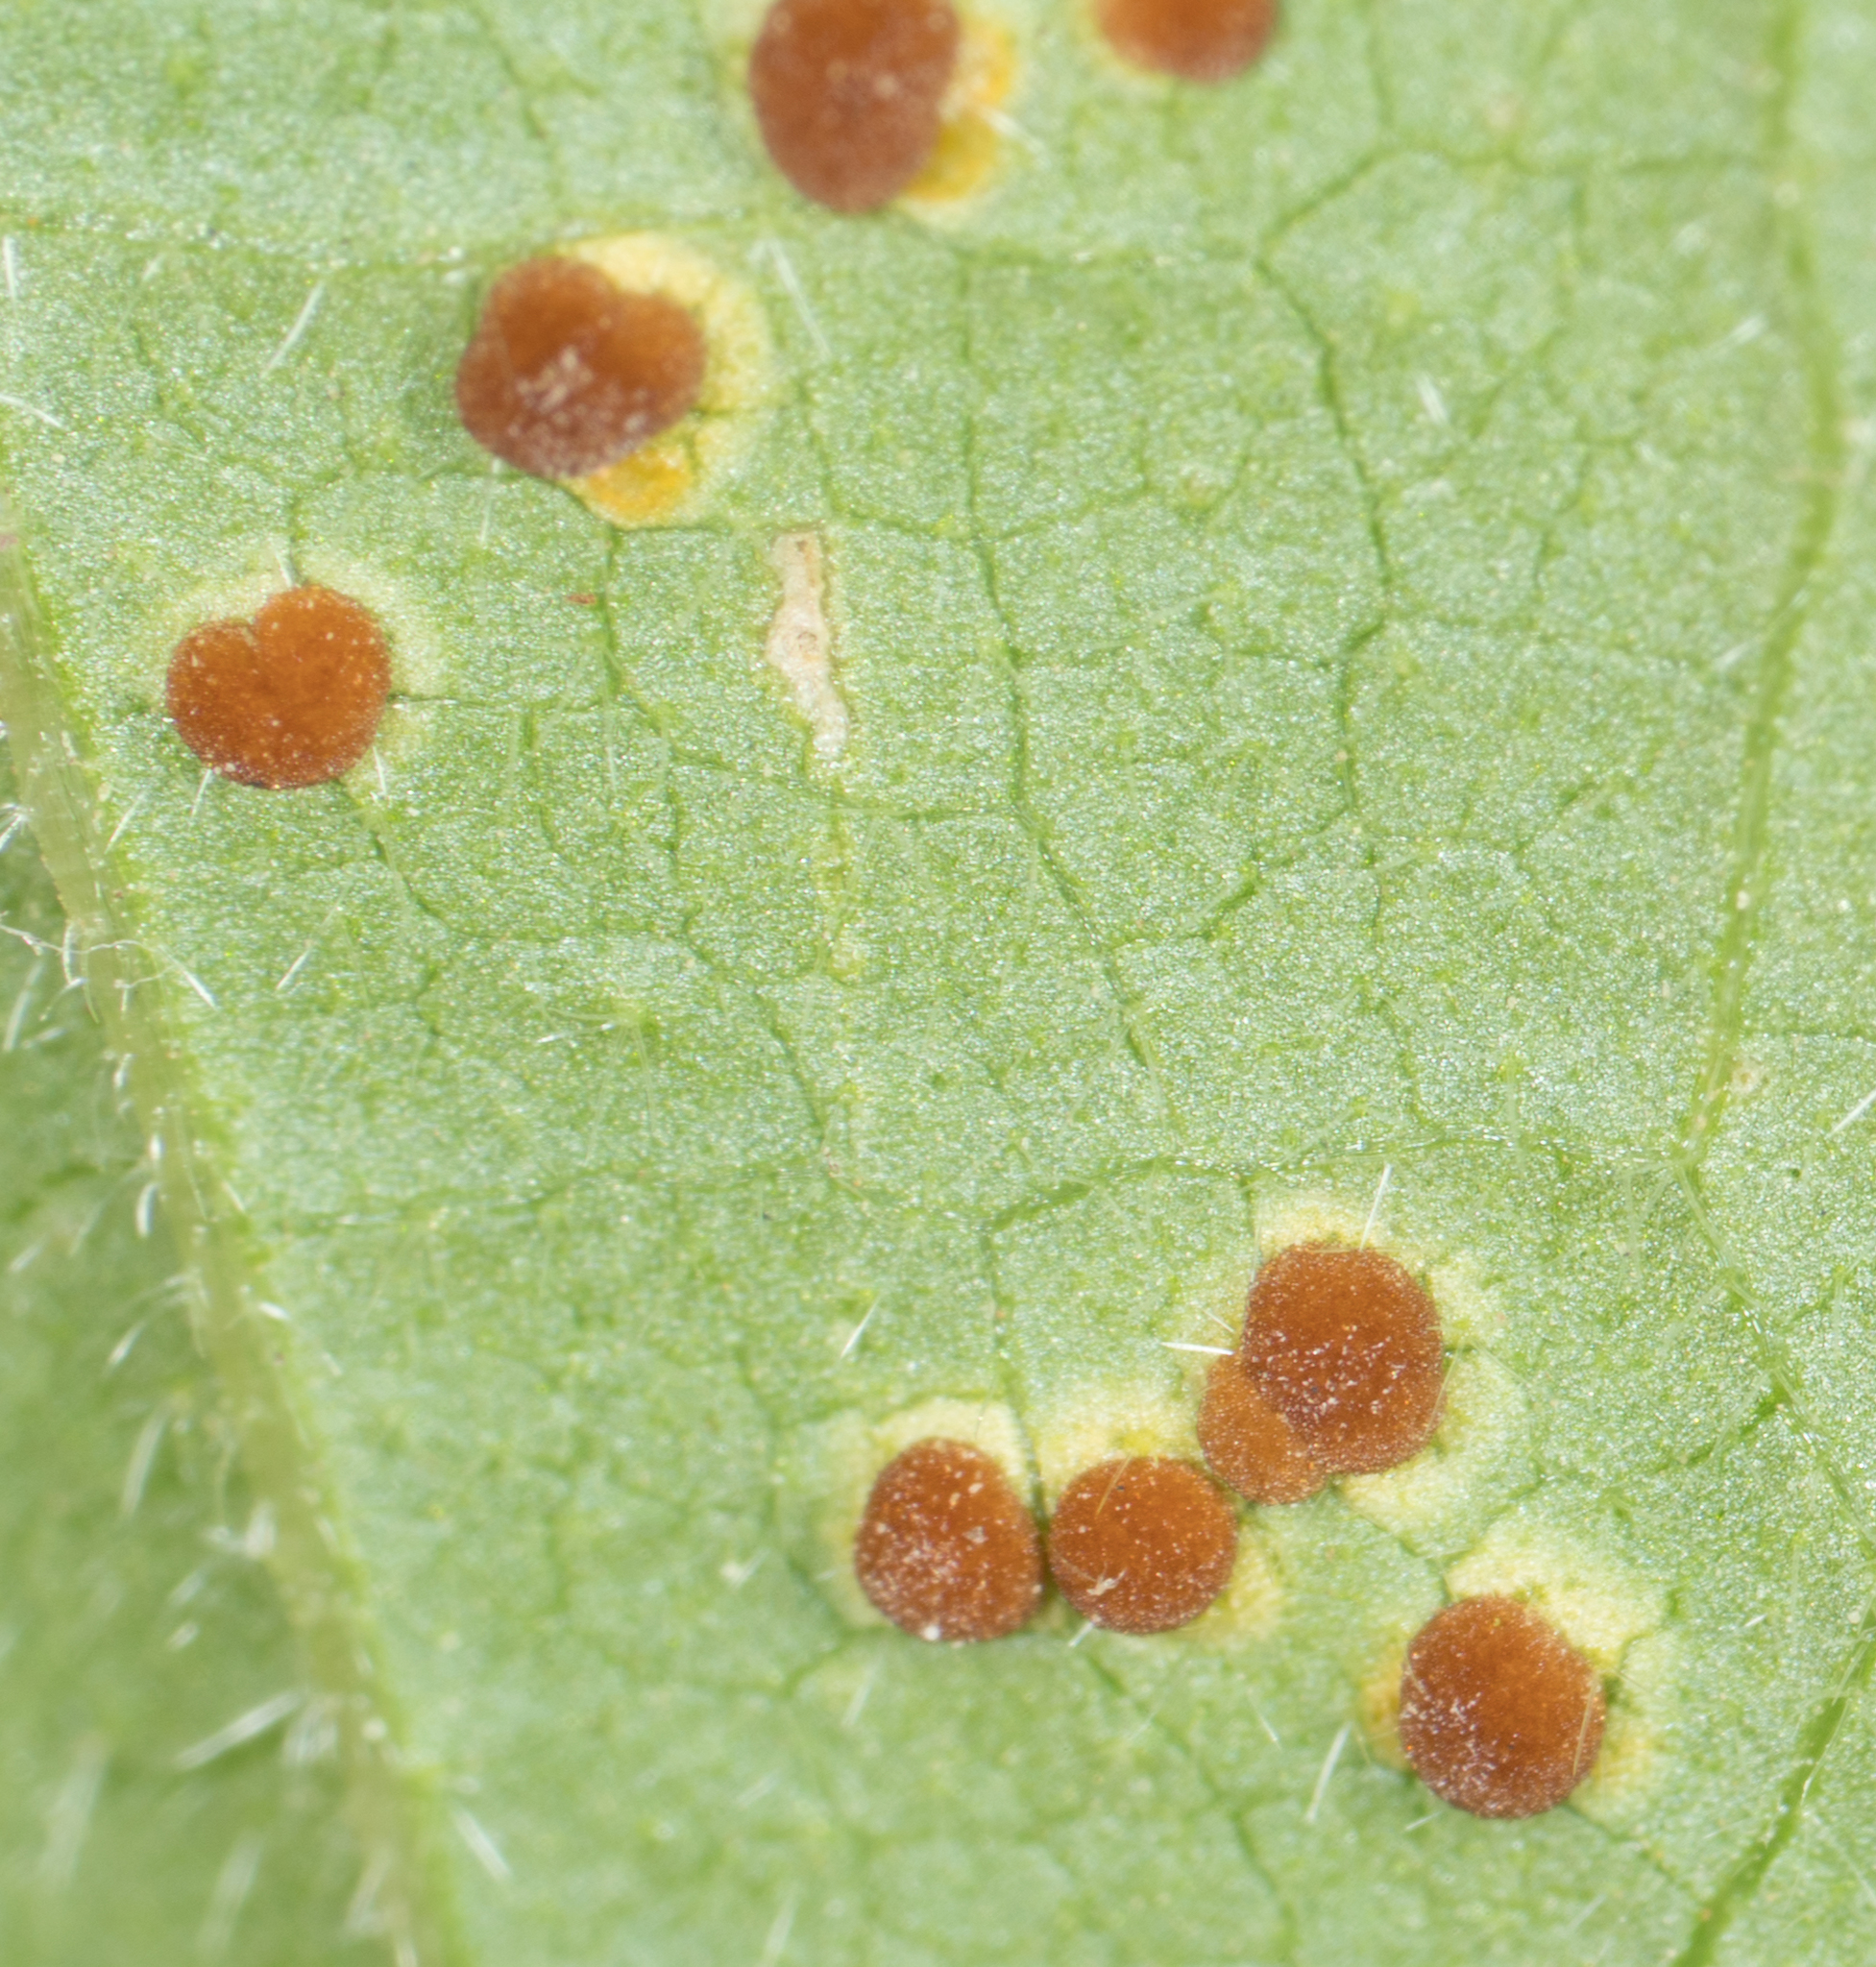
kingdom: Fungi
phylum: Basidiomycota
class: Pucciniomycetes
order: Pucciniales
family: Pucciniaceae
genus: Puccinia
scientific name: Puccinia malvacearum
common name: Hollyhock rust
